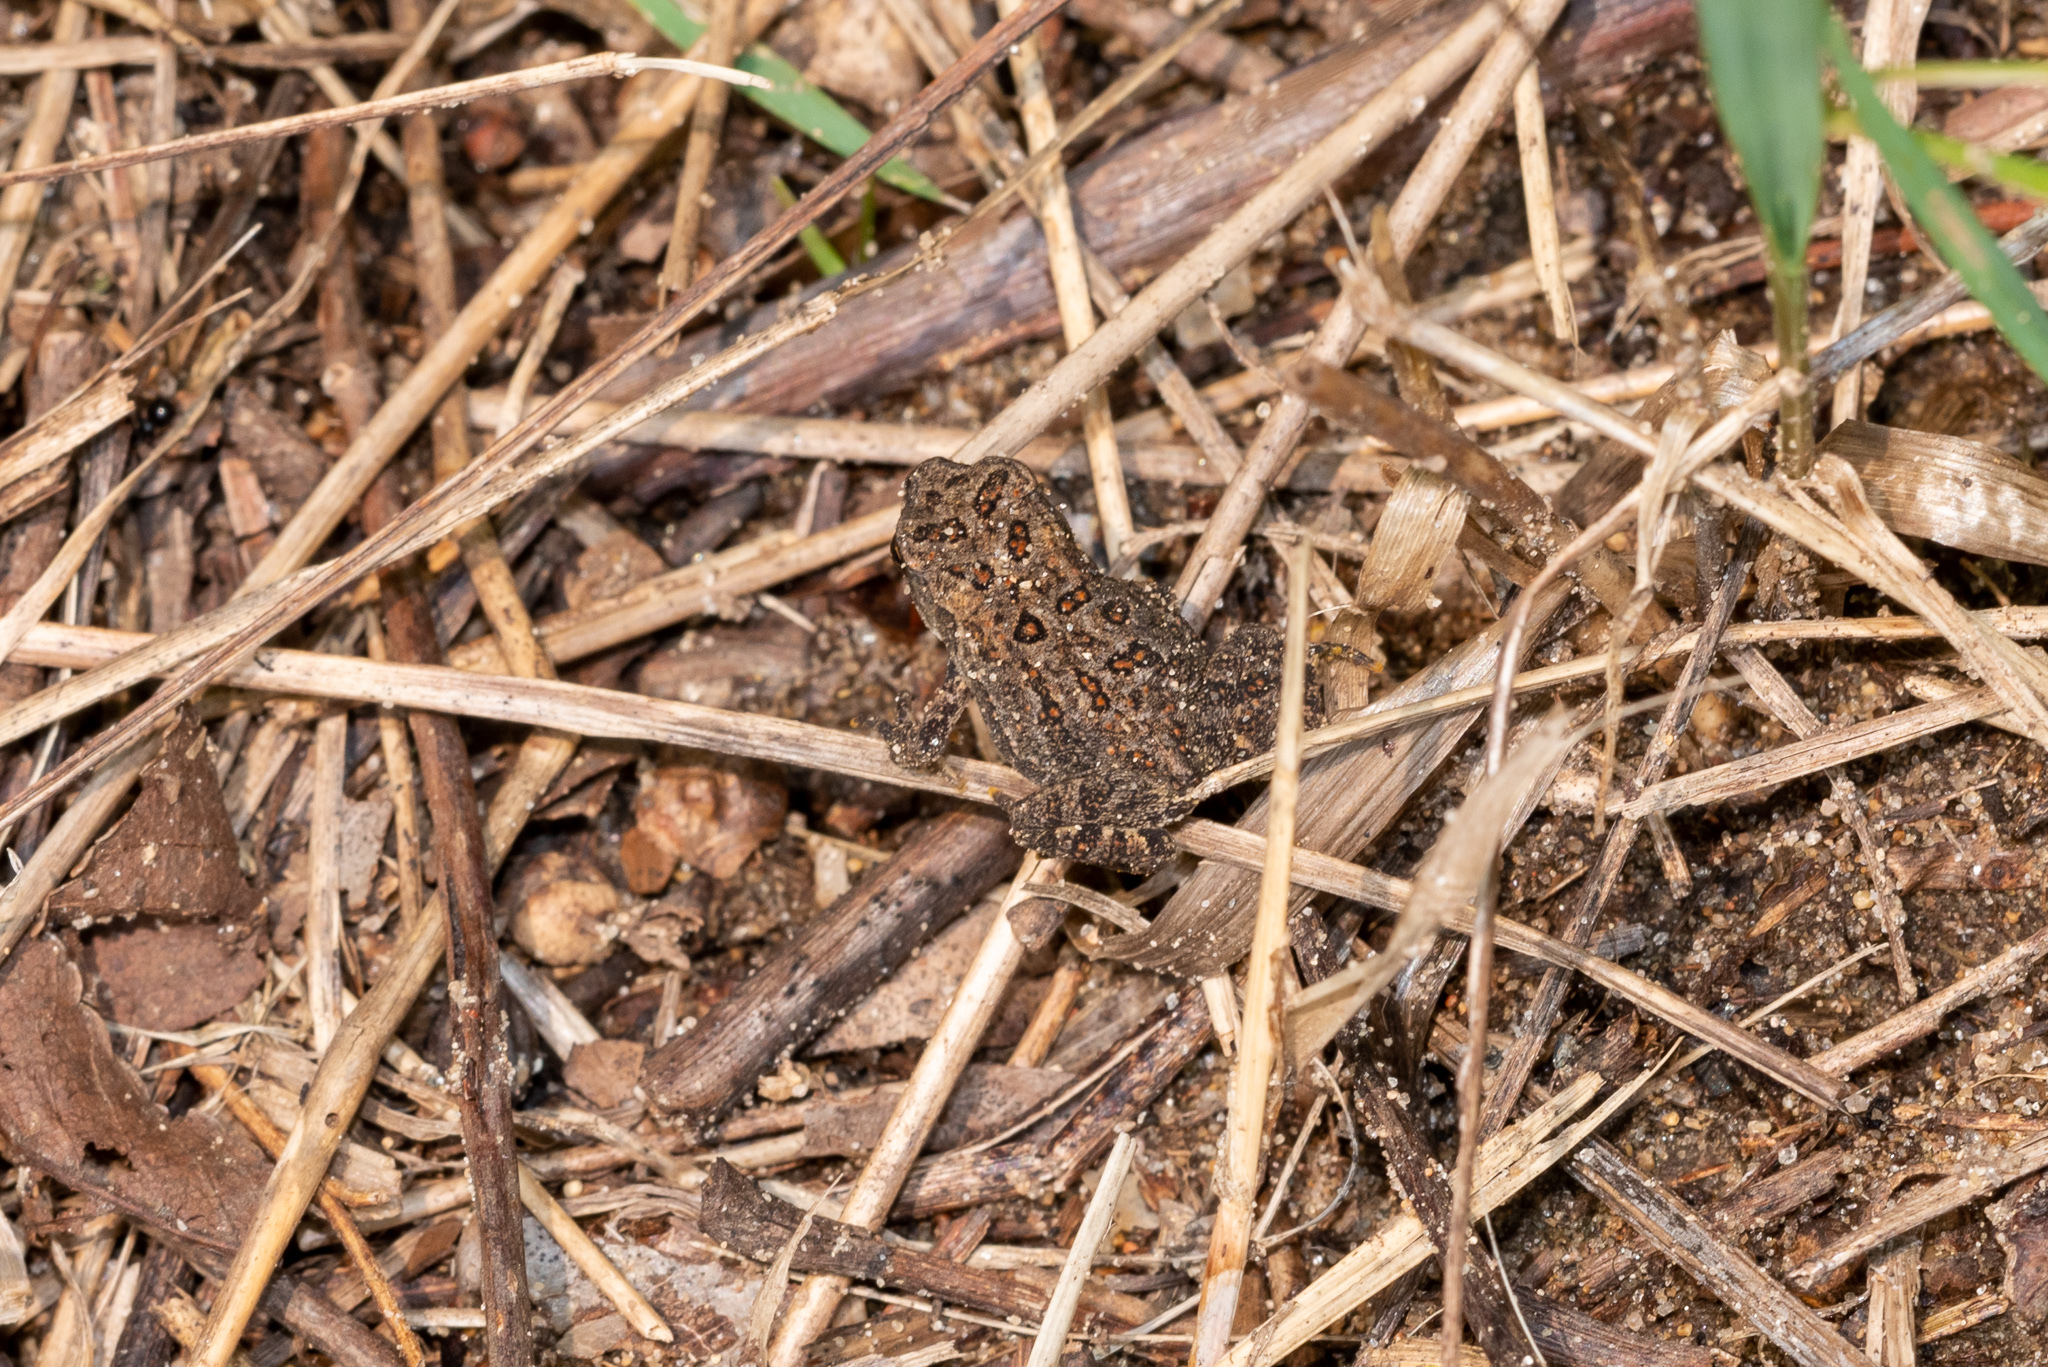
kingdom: Animalia
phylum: Chordata
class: Amphibia
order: Anura
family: Bufonidae
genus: Anaxyrus
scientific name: Anaxyrus americanus
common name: American toad
